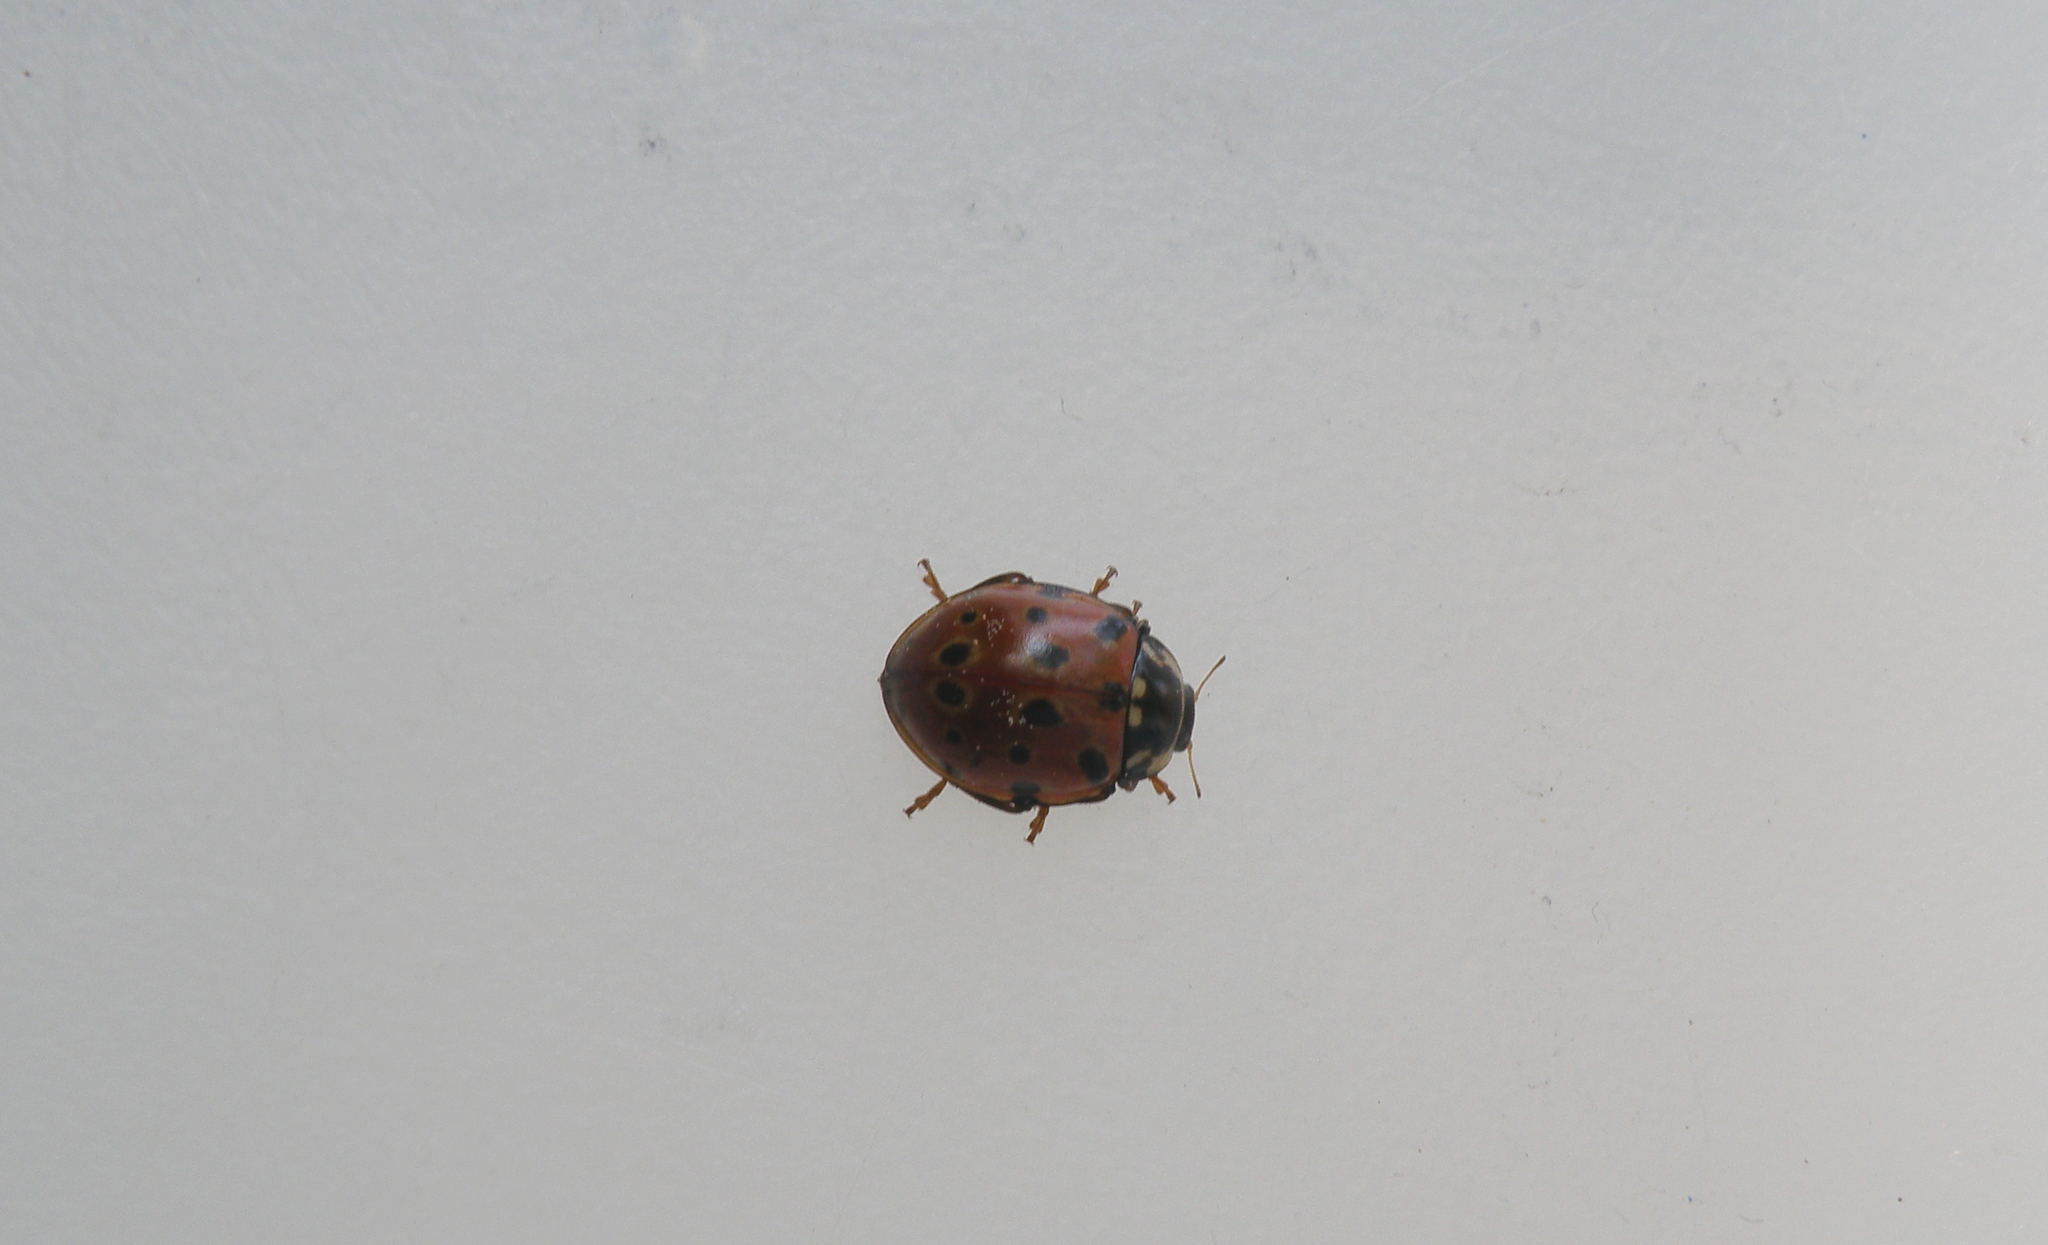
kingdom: Animalia
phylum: Arthropoda
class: Insecta
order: Coleoptera
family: Coccinellidae
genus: Anatis
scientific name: Anatis ocellata
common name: Eyed ladybird
